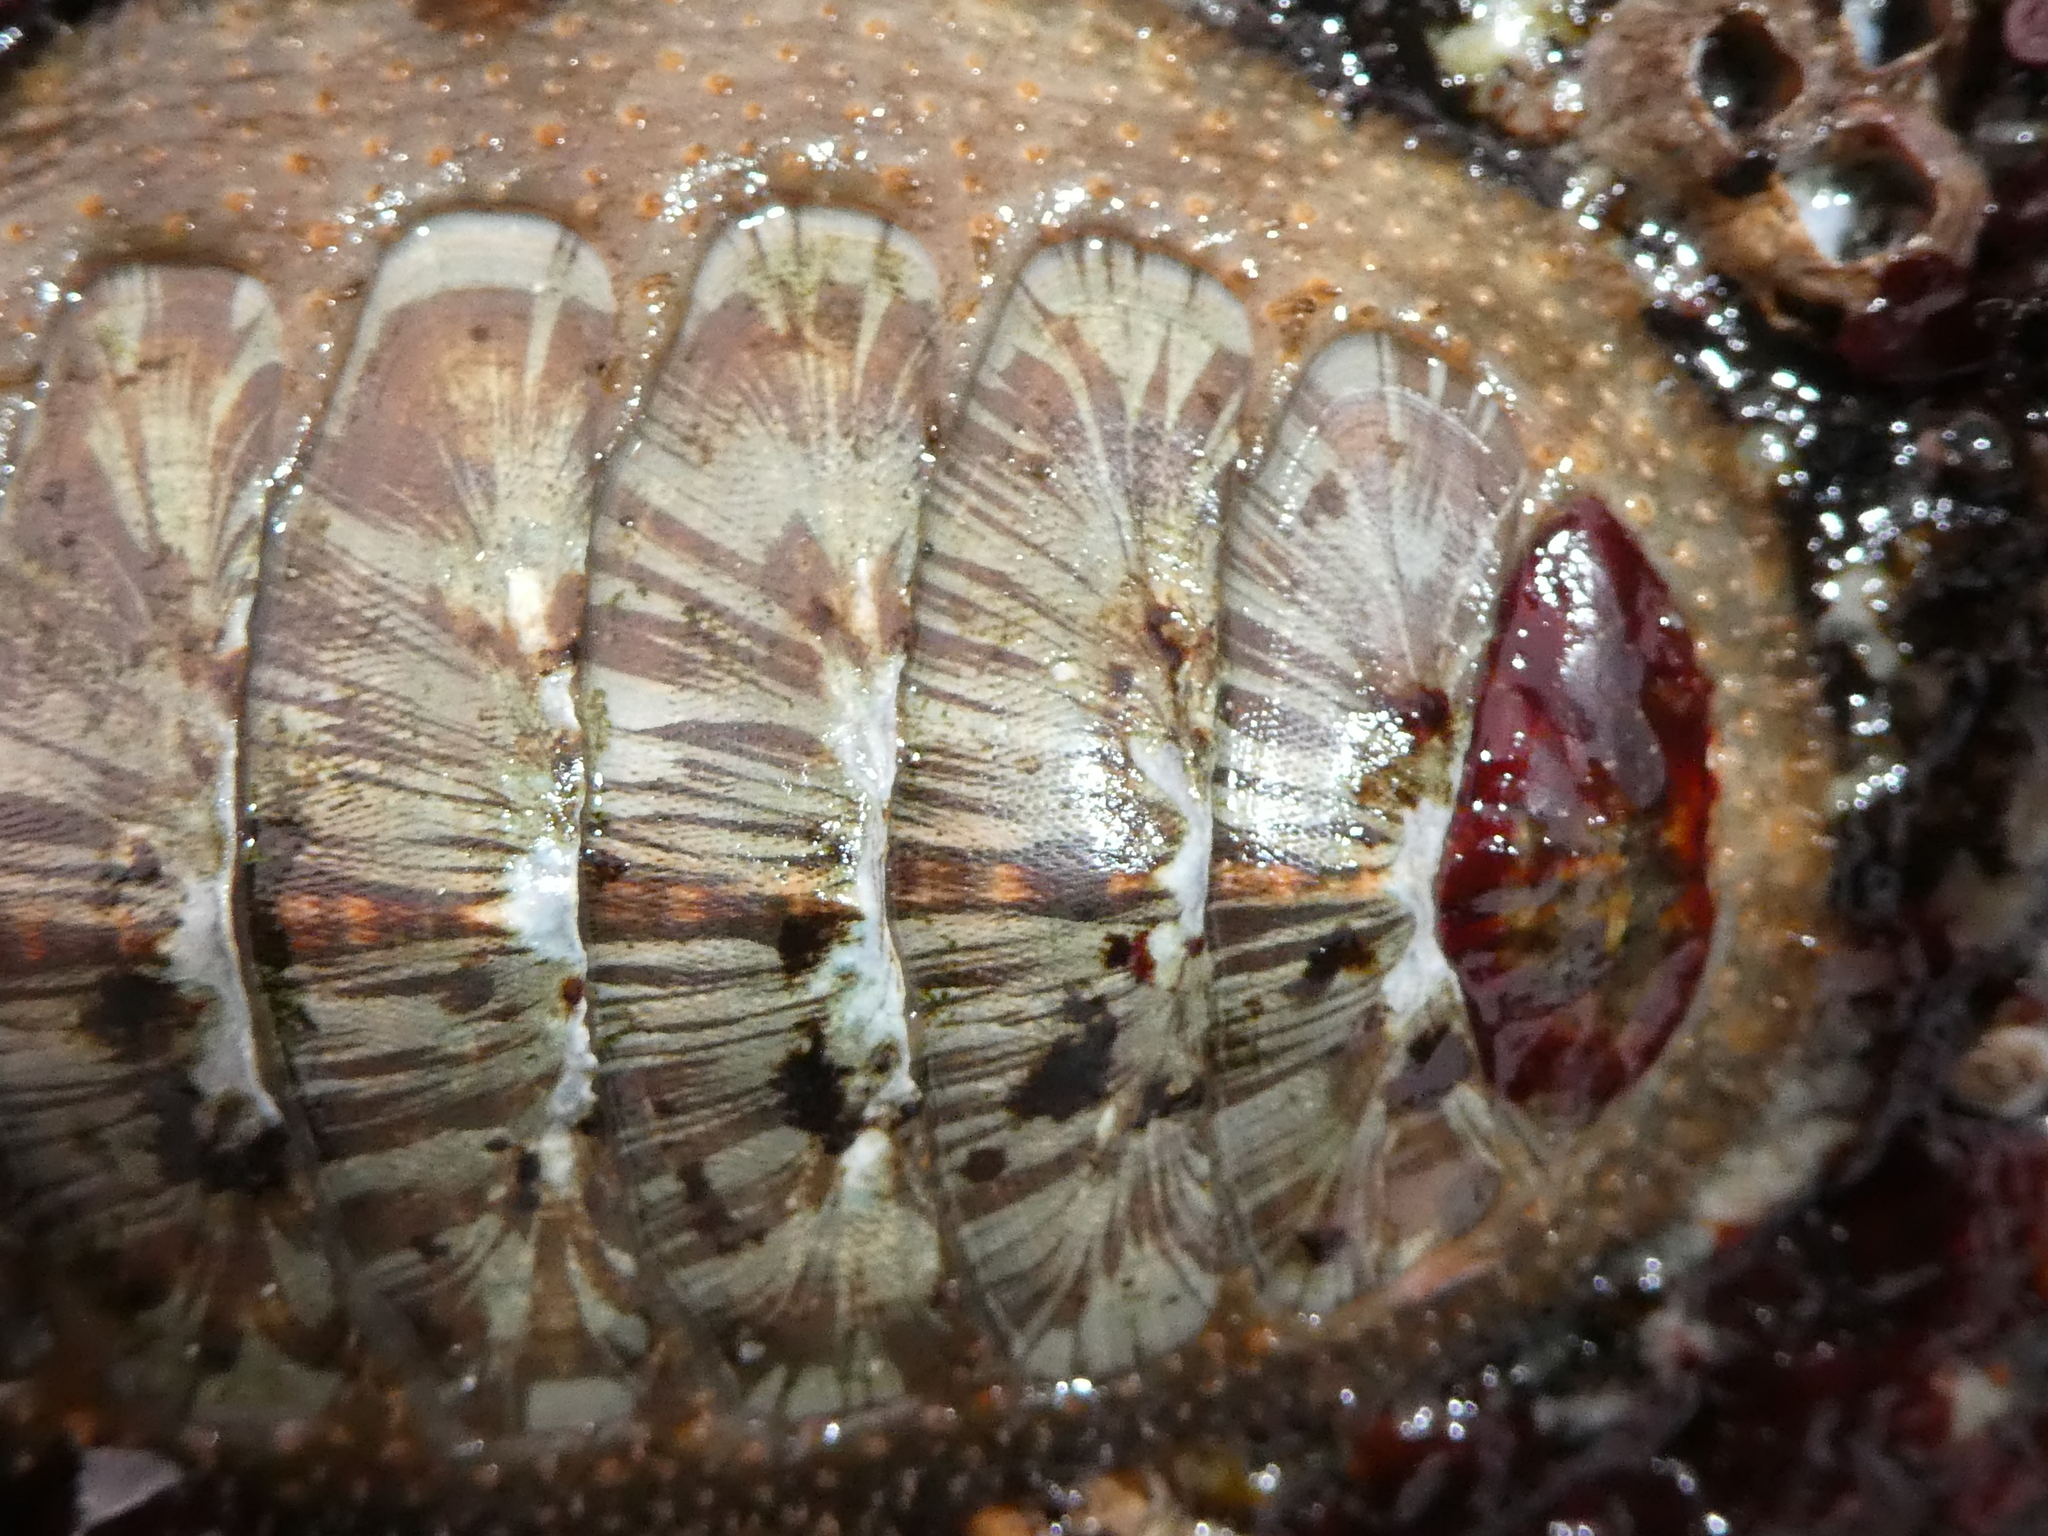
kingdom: Animalia
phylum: Mollusca
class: Polyplacophora
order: Chitonida
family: Mopaliidae
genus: Mopalia
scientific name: Mopalia lignosa
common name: Woody chiton
